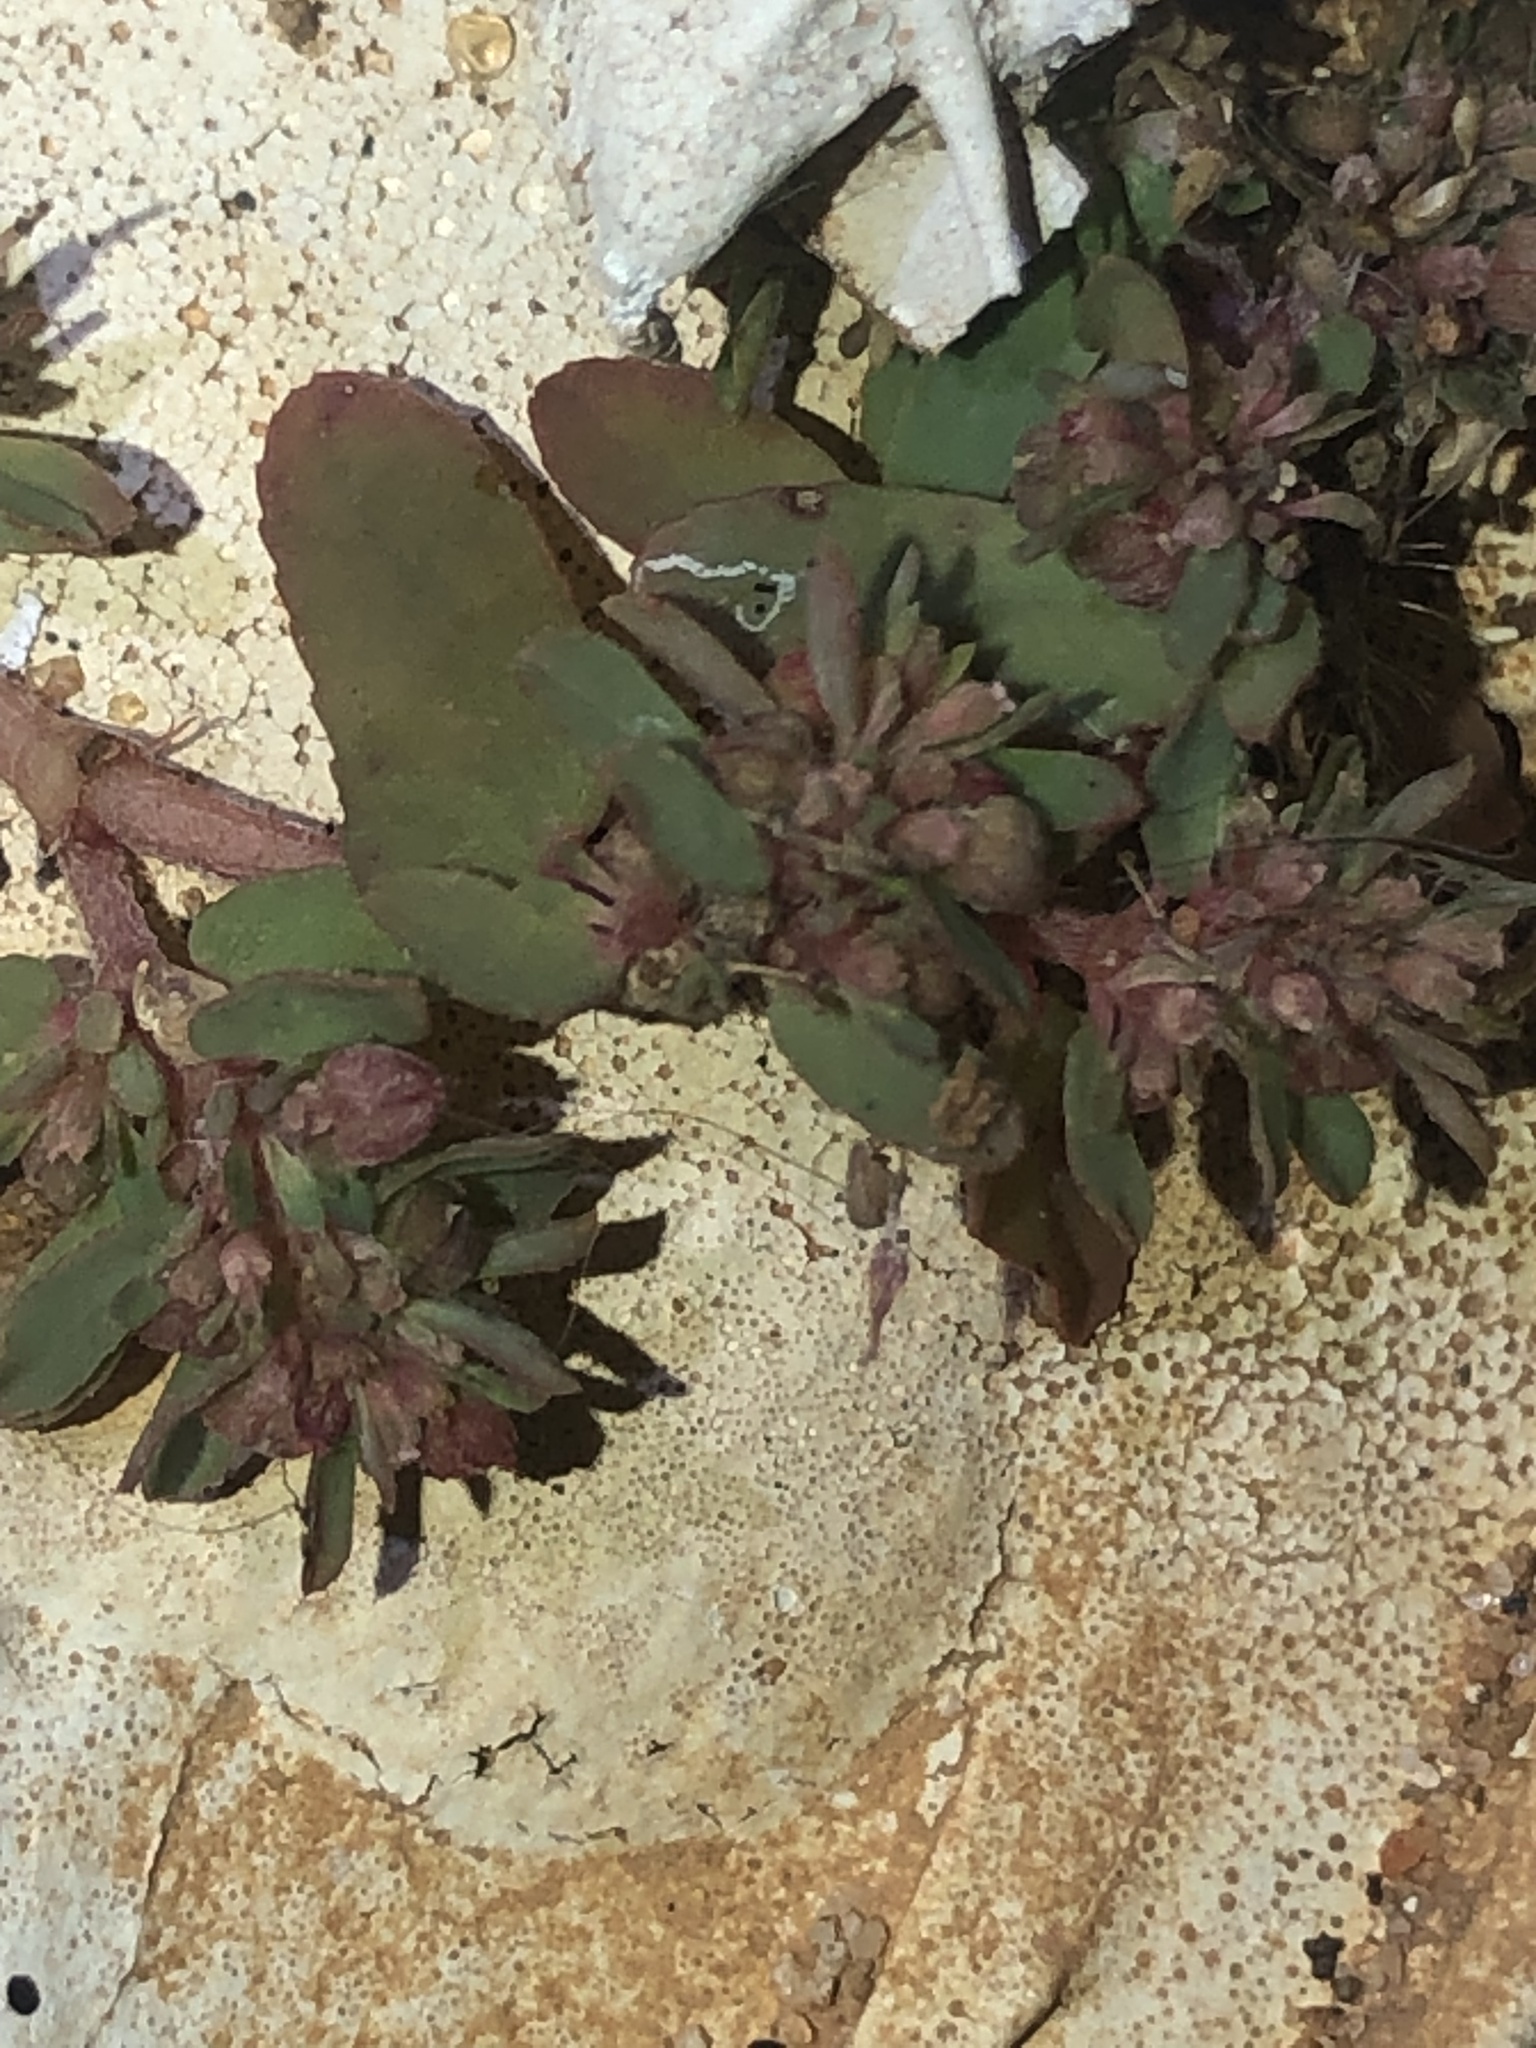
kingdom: Plantae
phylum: Tracheophyta
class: Magnoliopsida
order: Malpighiales
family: Euphorbiaceae
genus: Euphorbia
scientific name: Euphorbia maculata
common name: Spotted spurge
